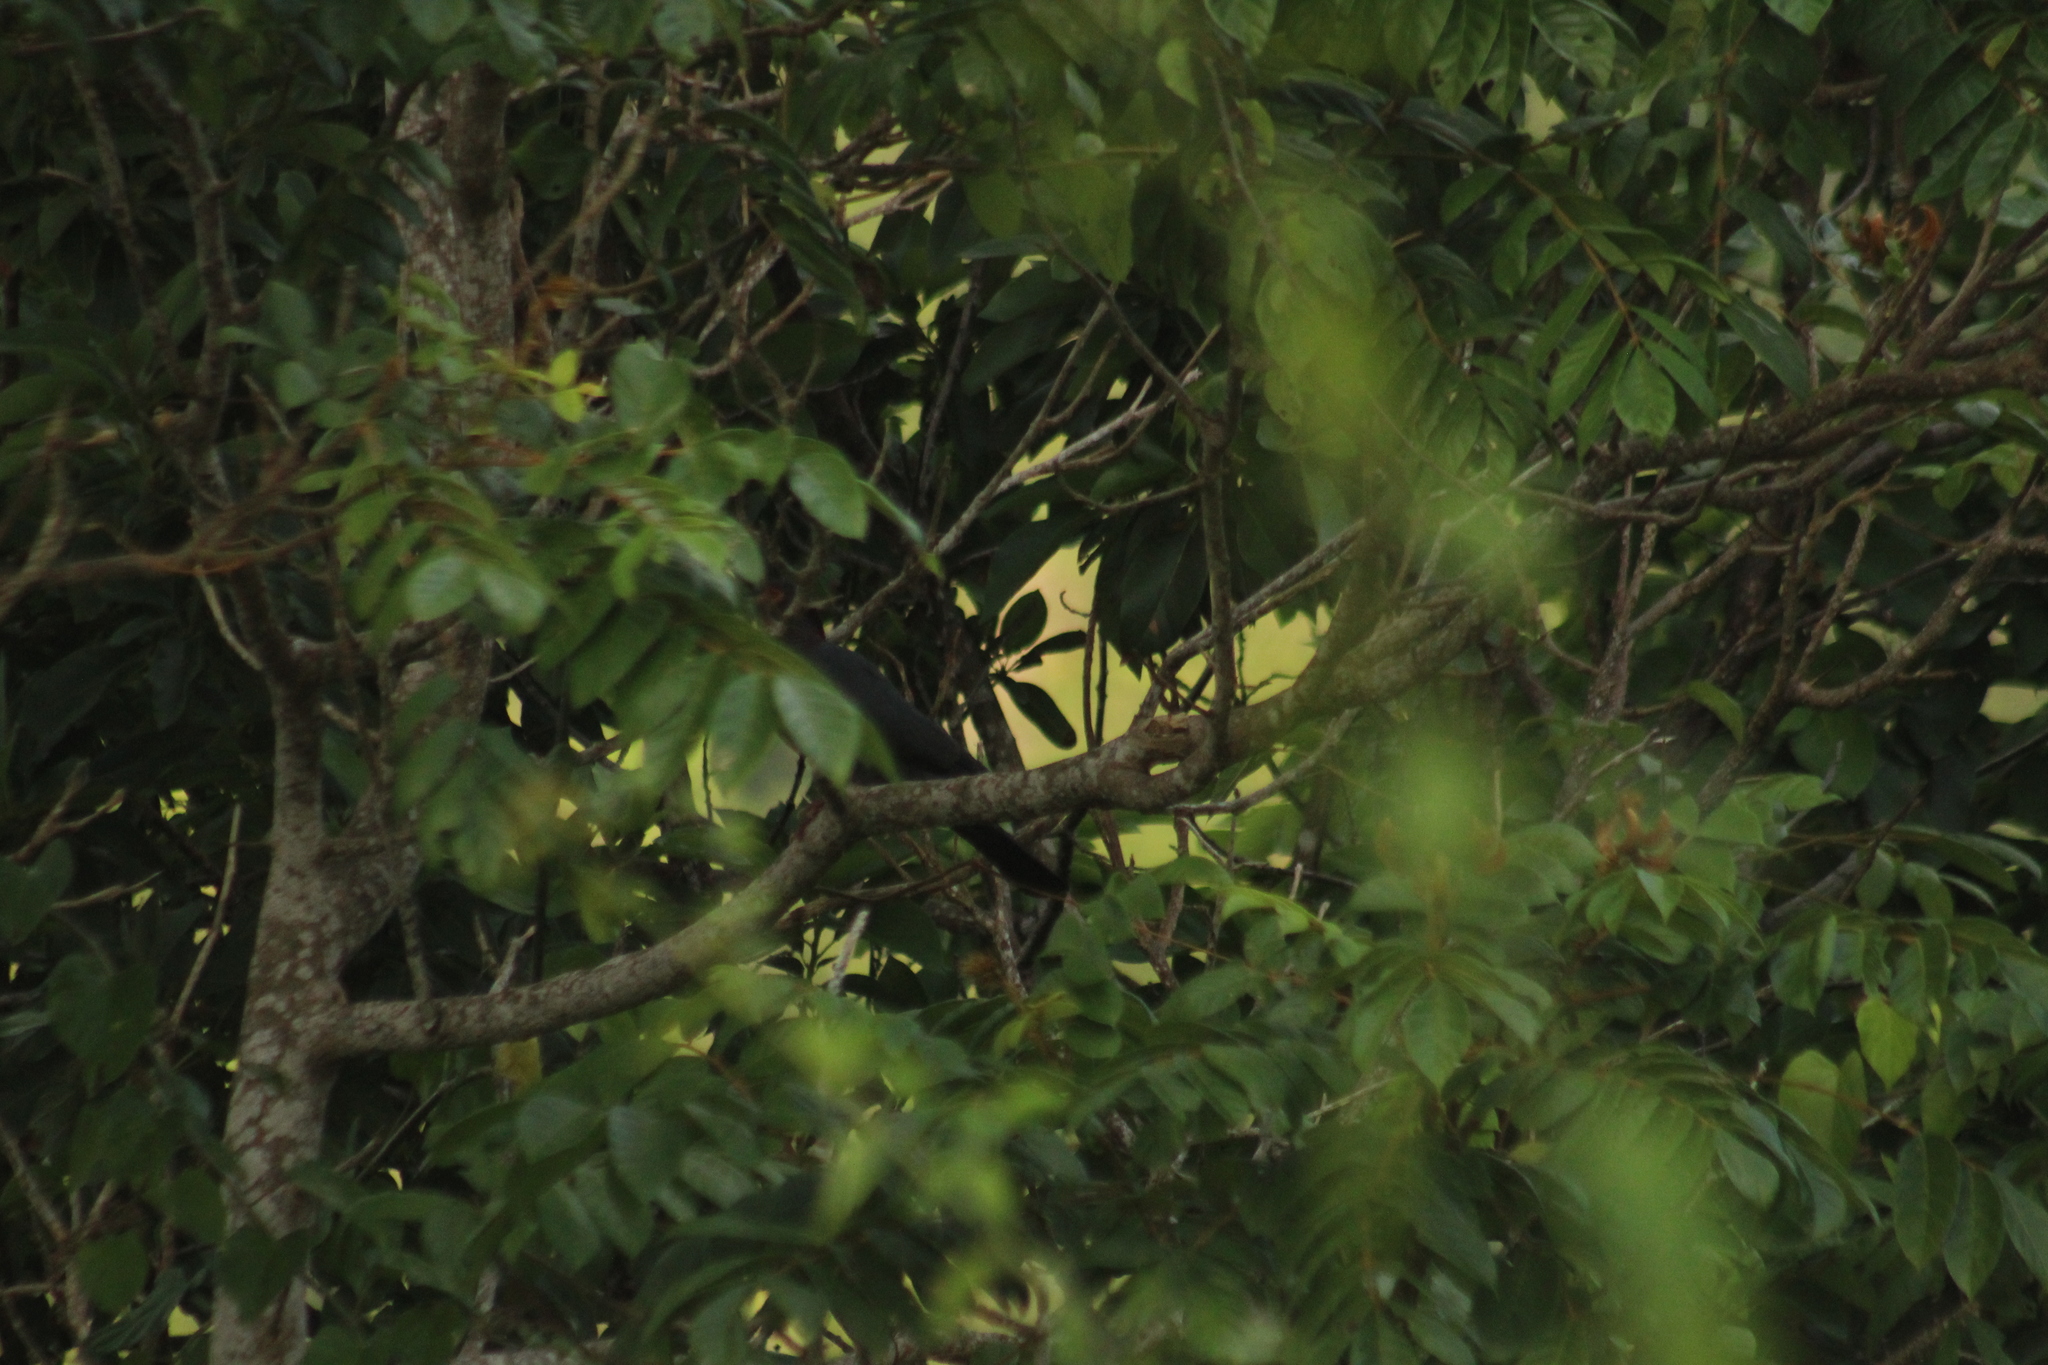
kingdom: Animalia
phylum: Chordata
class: Aves
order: Columbiformes
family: Columbidae
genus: Patagioenas
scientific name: Patagioenas squamosa
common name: Scaly-naped pigeon
